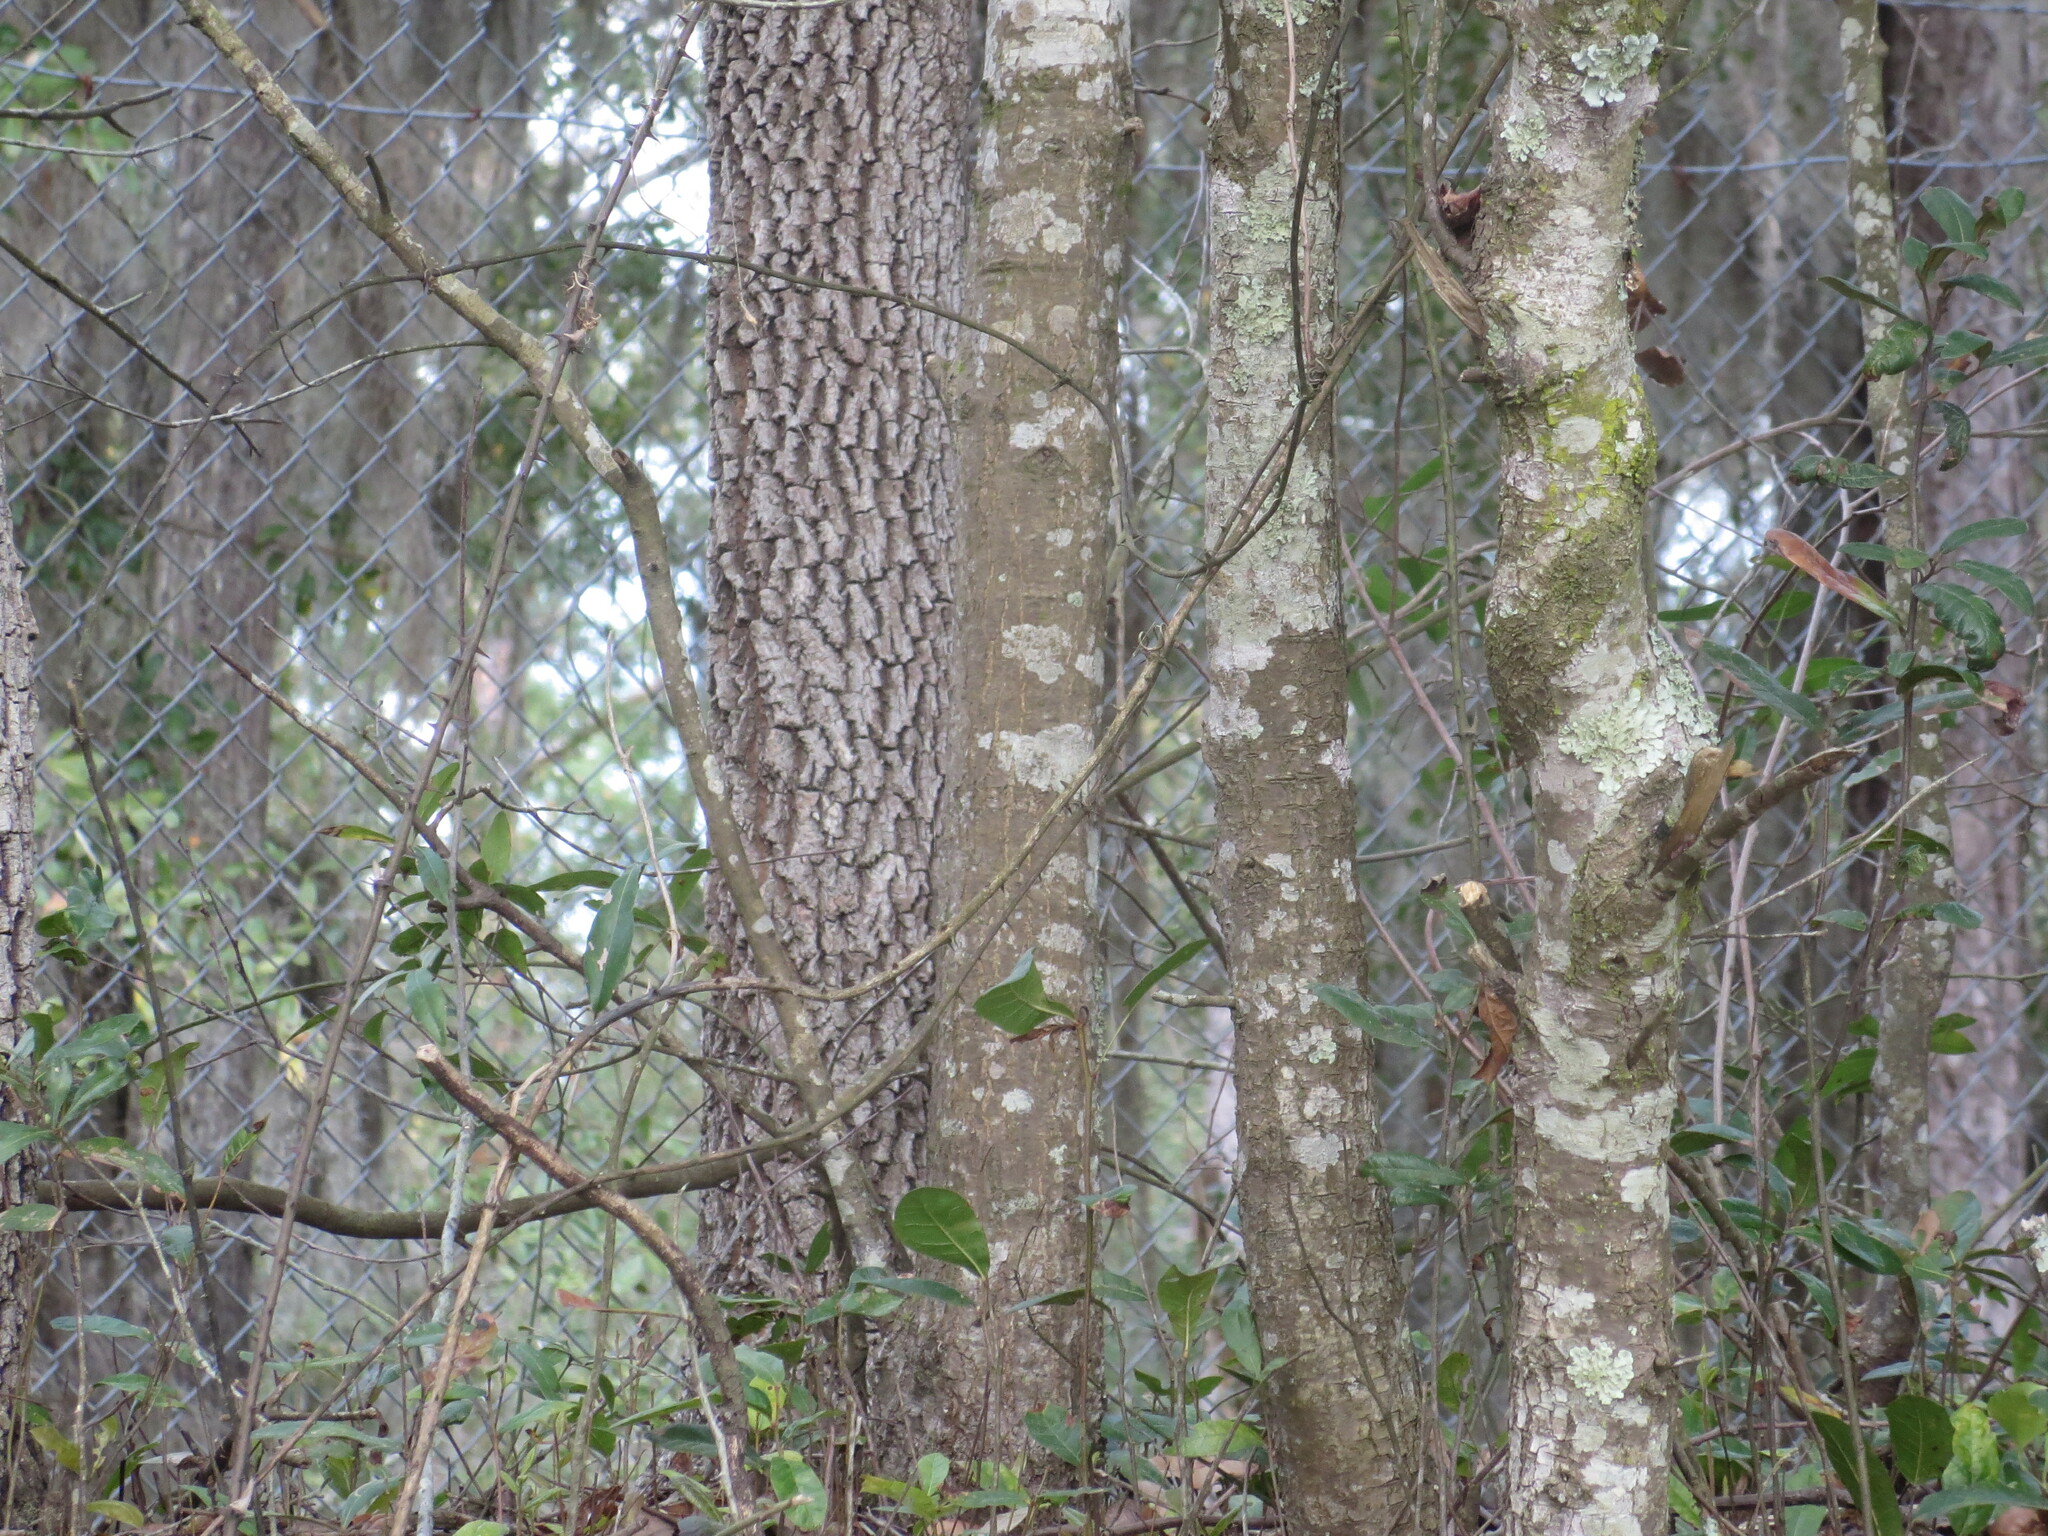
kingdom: Plantae
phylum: Tracheophyta
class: Magnoliopsida
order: Ericales
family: Ebenaceae
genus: Diospyros
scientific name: Diospyros virginiana
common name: Persimmon
